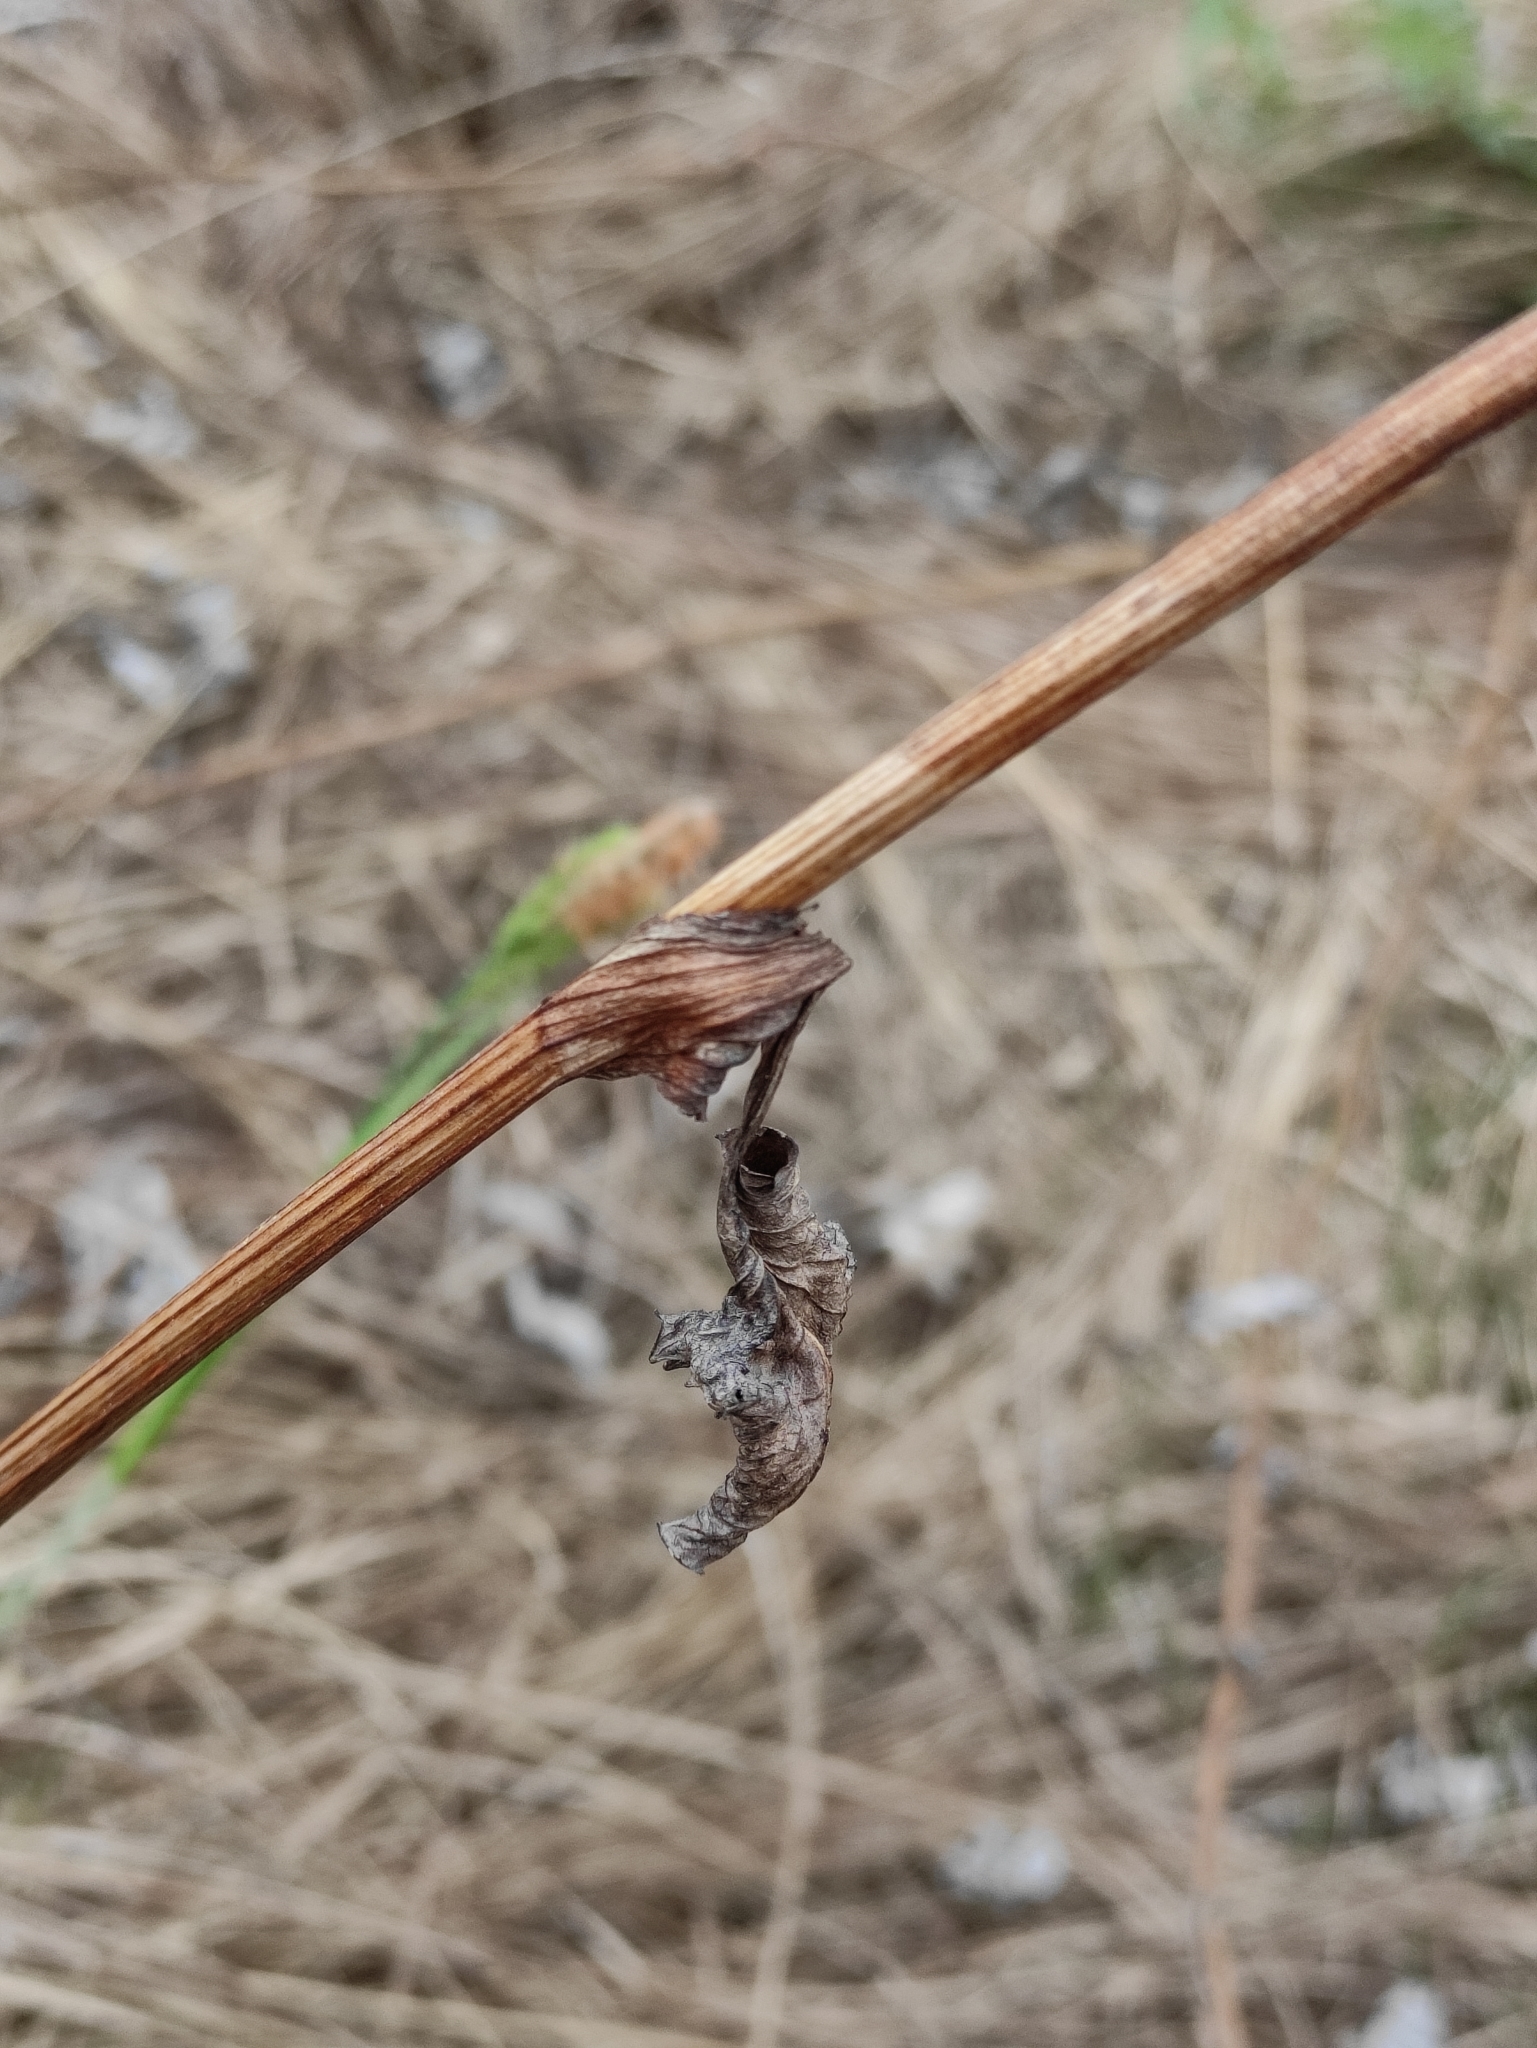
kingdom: Plantae
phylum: Tracheophyta
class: Magnoliopsida
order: Asterales
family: Asteraceae
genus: Ligularia
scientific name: Ligularia sibirica
